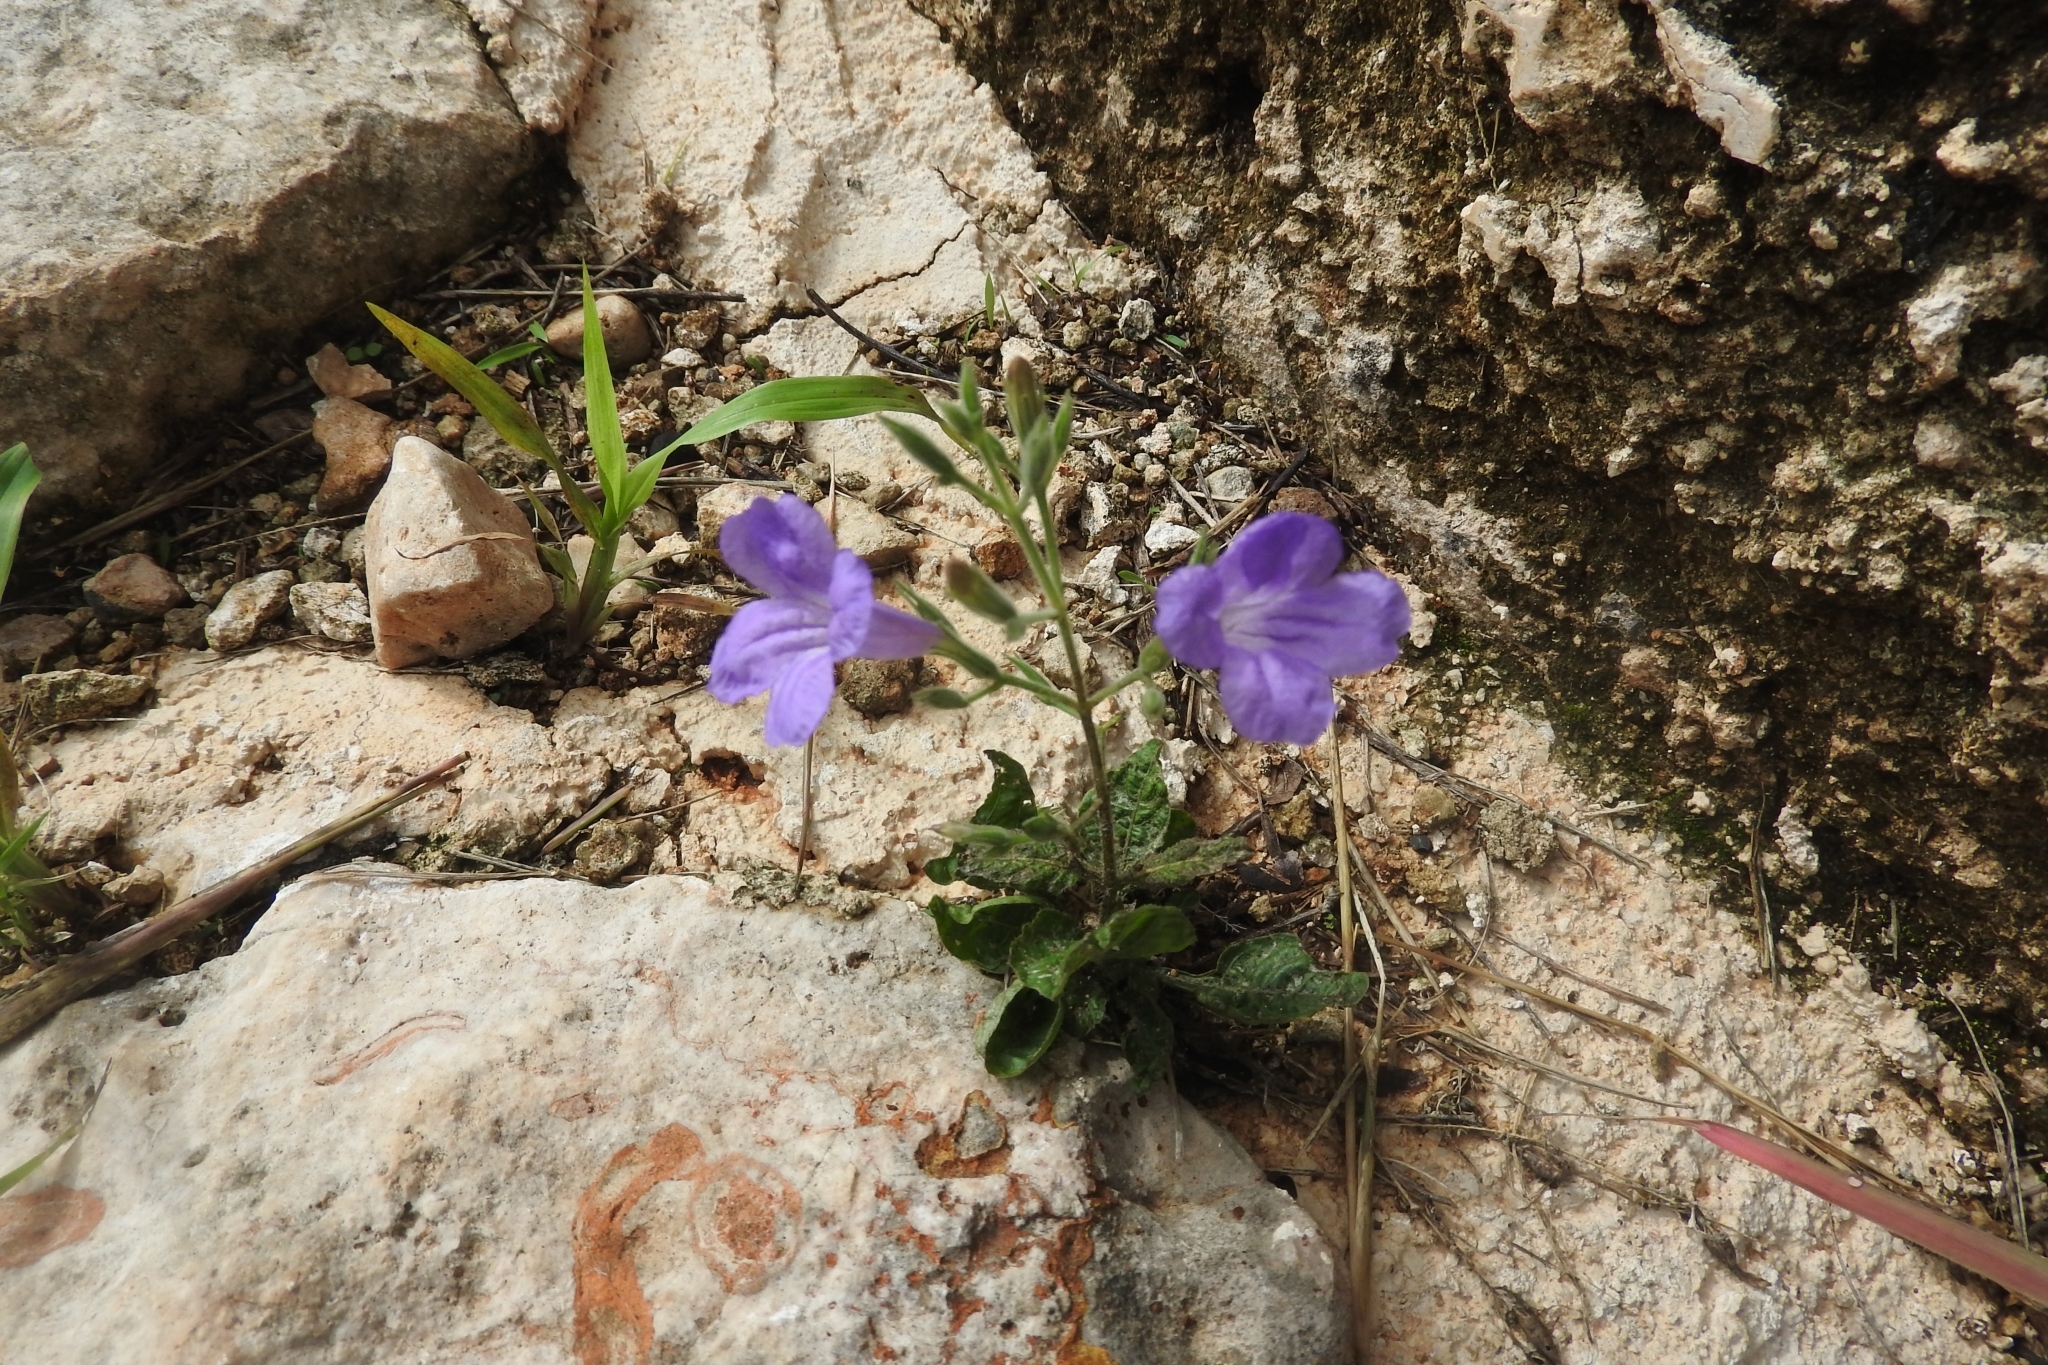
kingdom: Plantae
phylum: Tracheophyta
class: Magnoliopsida
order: Lamiales
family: Acanthaceae
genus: Ruellia
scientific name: Ruellia ciliatiflora
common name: Hairyflower wild petunia
